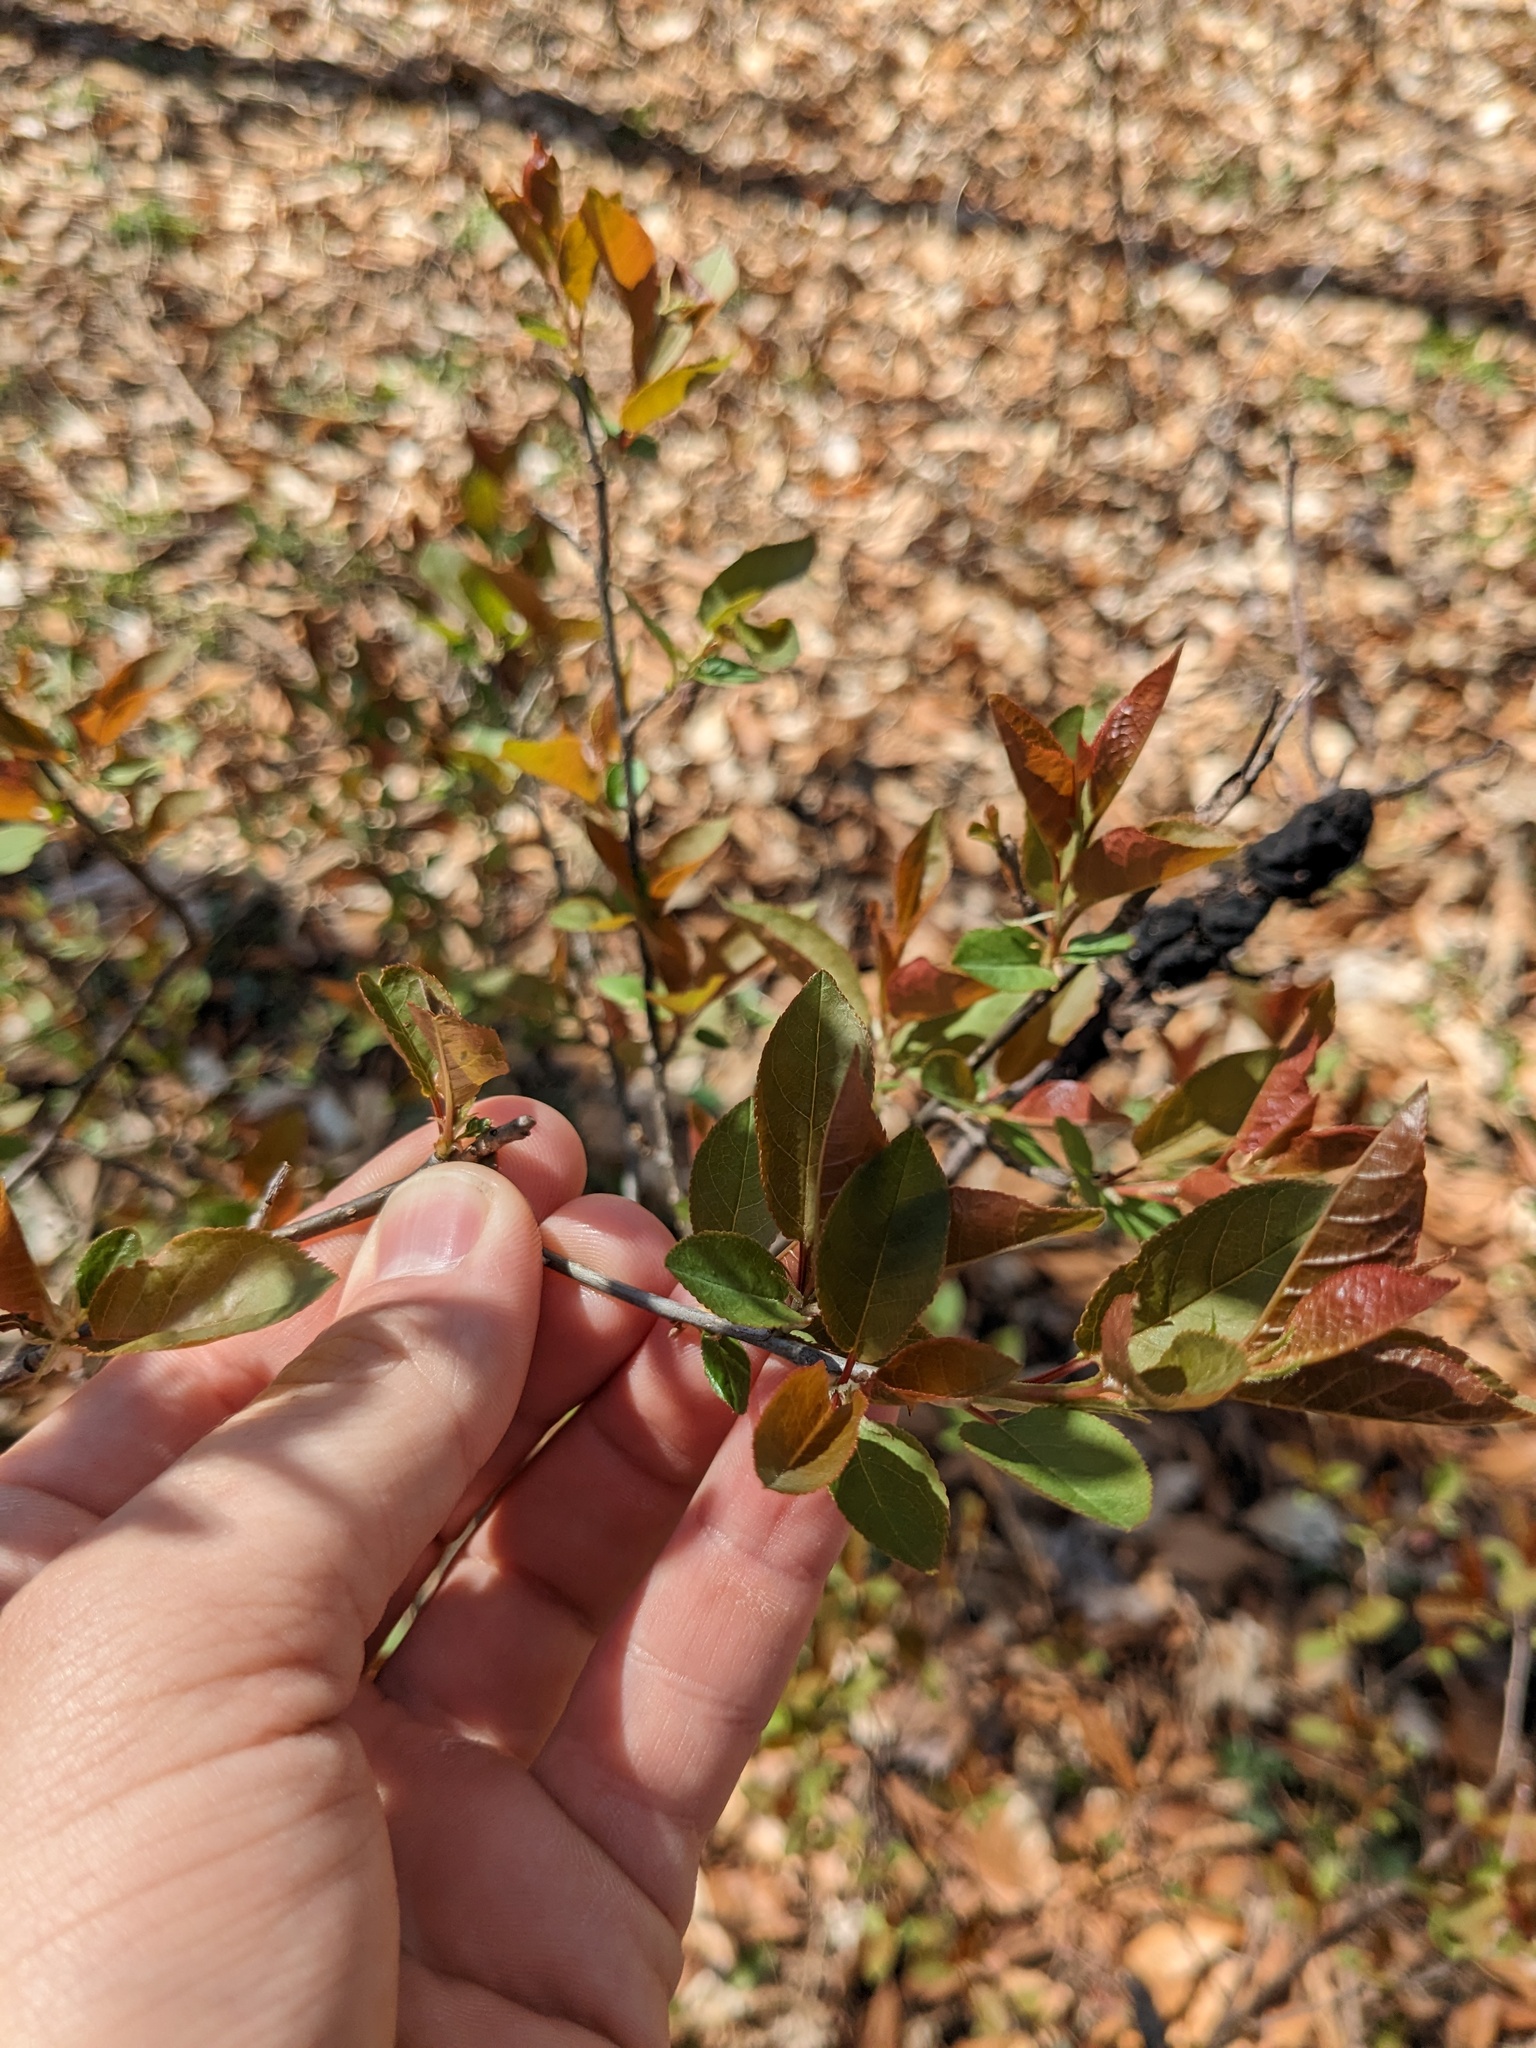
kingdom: Plantae
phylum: Tracheophyta
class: Magnoliopsida
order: Rosales
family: Rosaceae
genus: Prunus
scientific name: Prunus virginiana
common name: Chokecherry
